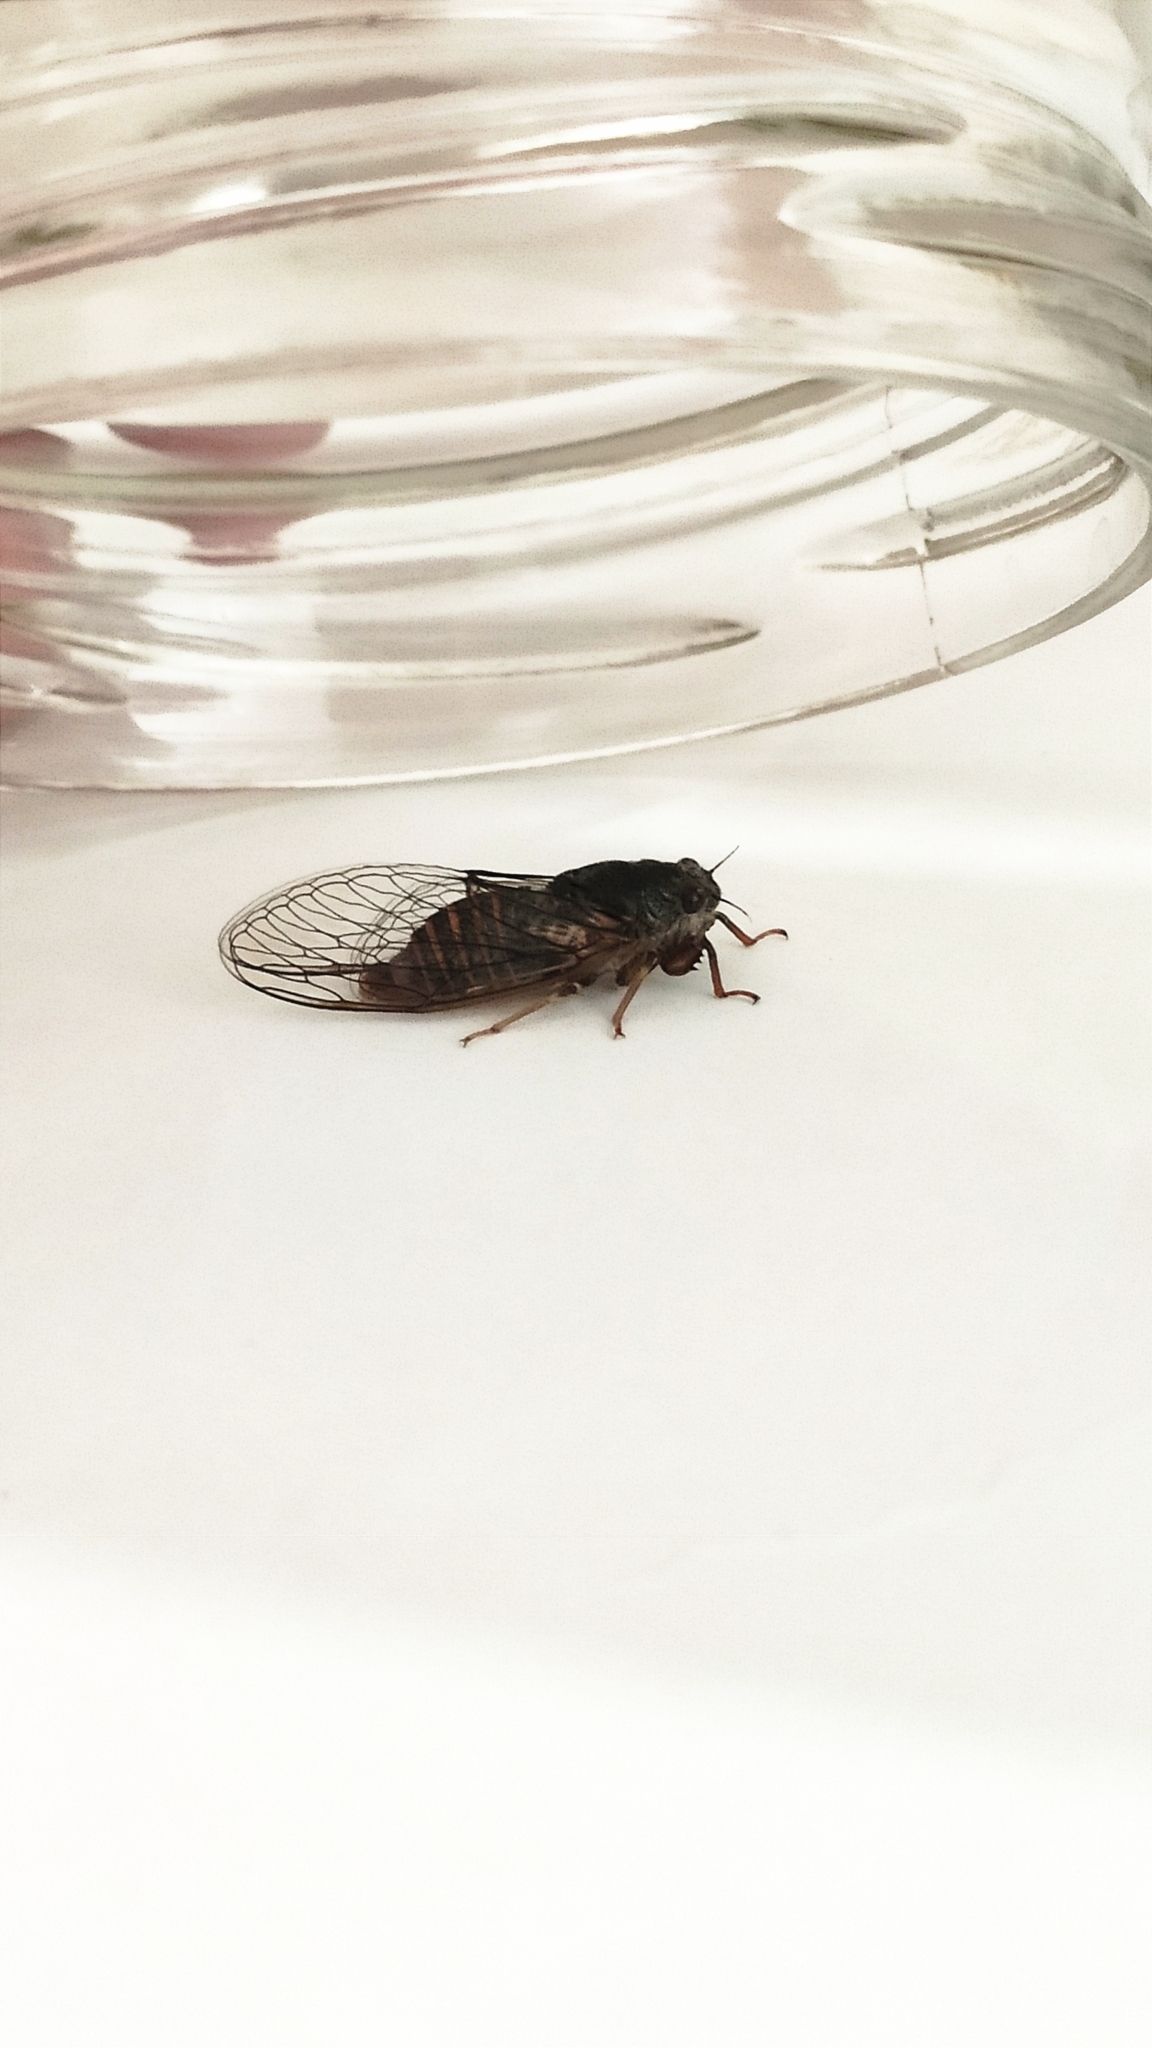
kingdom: Animalia
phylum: Arthropoda
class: Insecta
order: Hemiptera
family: Cicadidae
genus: Cicadetta
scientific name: Cicadetta montana
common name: New forest cicada
